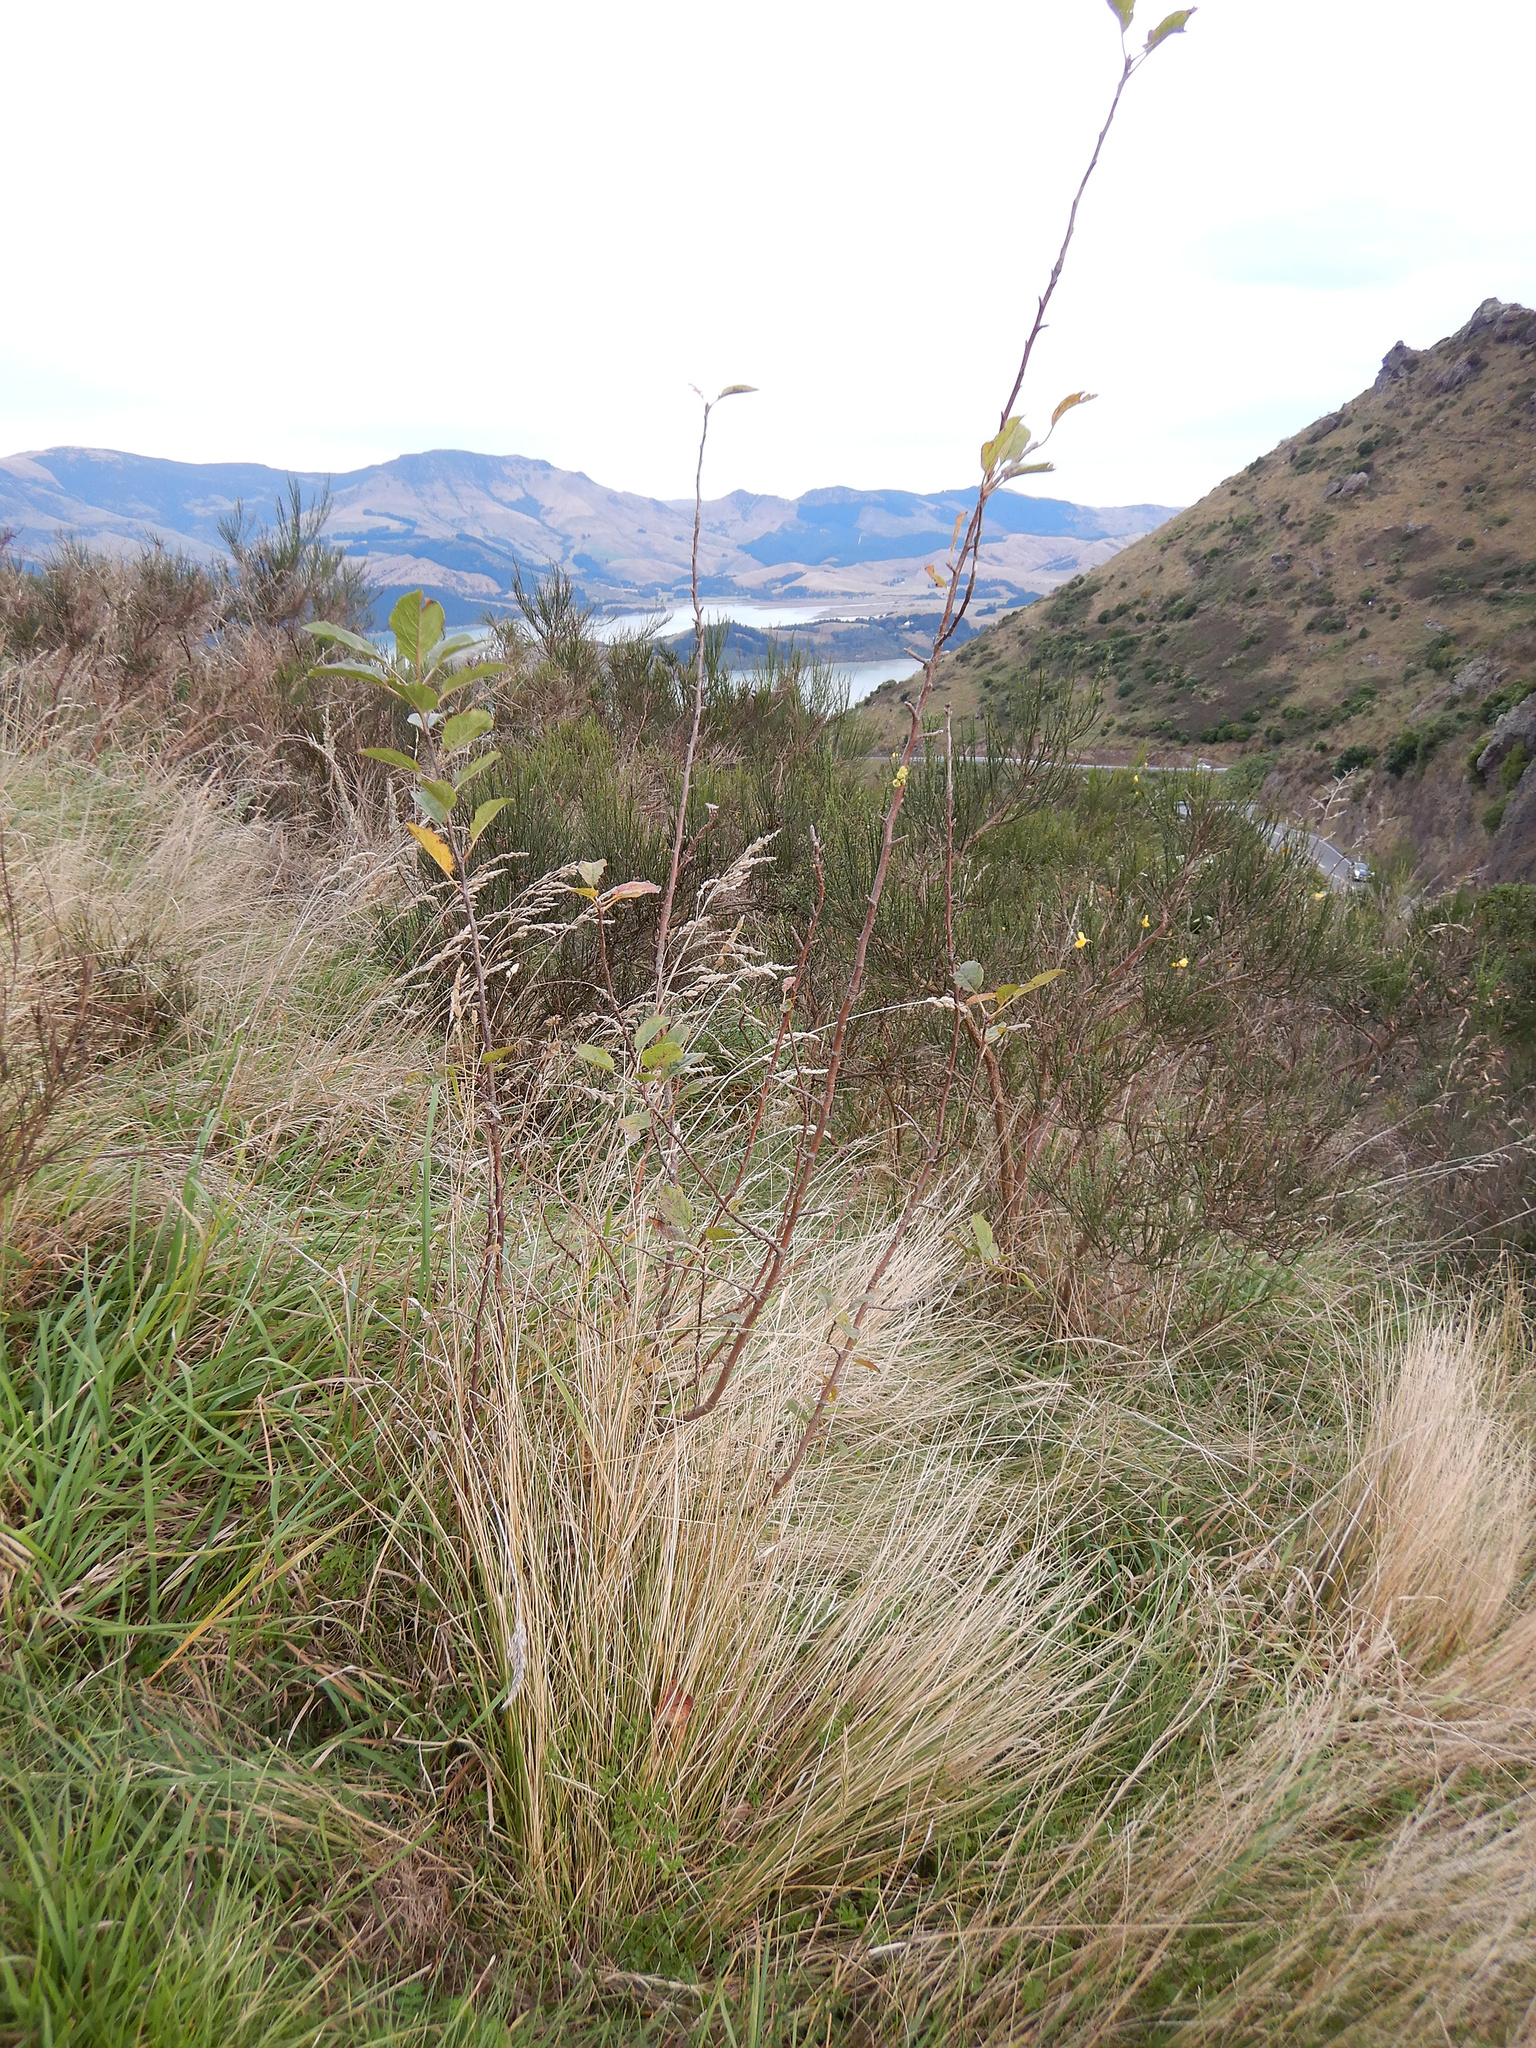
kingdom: Plantae
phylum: Tracheophyta
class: Magnoliopsida
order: Rosales
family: Rosaceae
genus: Malus
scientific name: Malus domestica
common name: Apple
